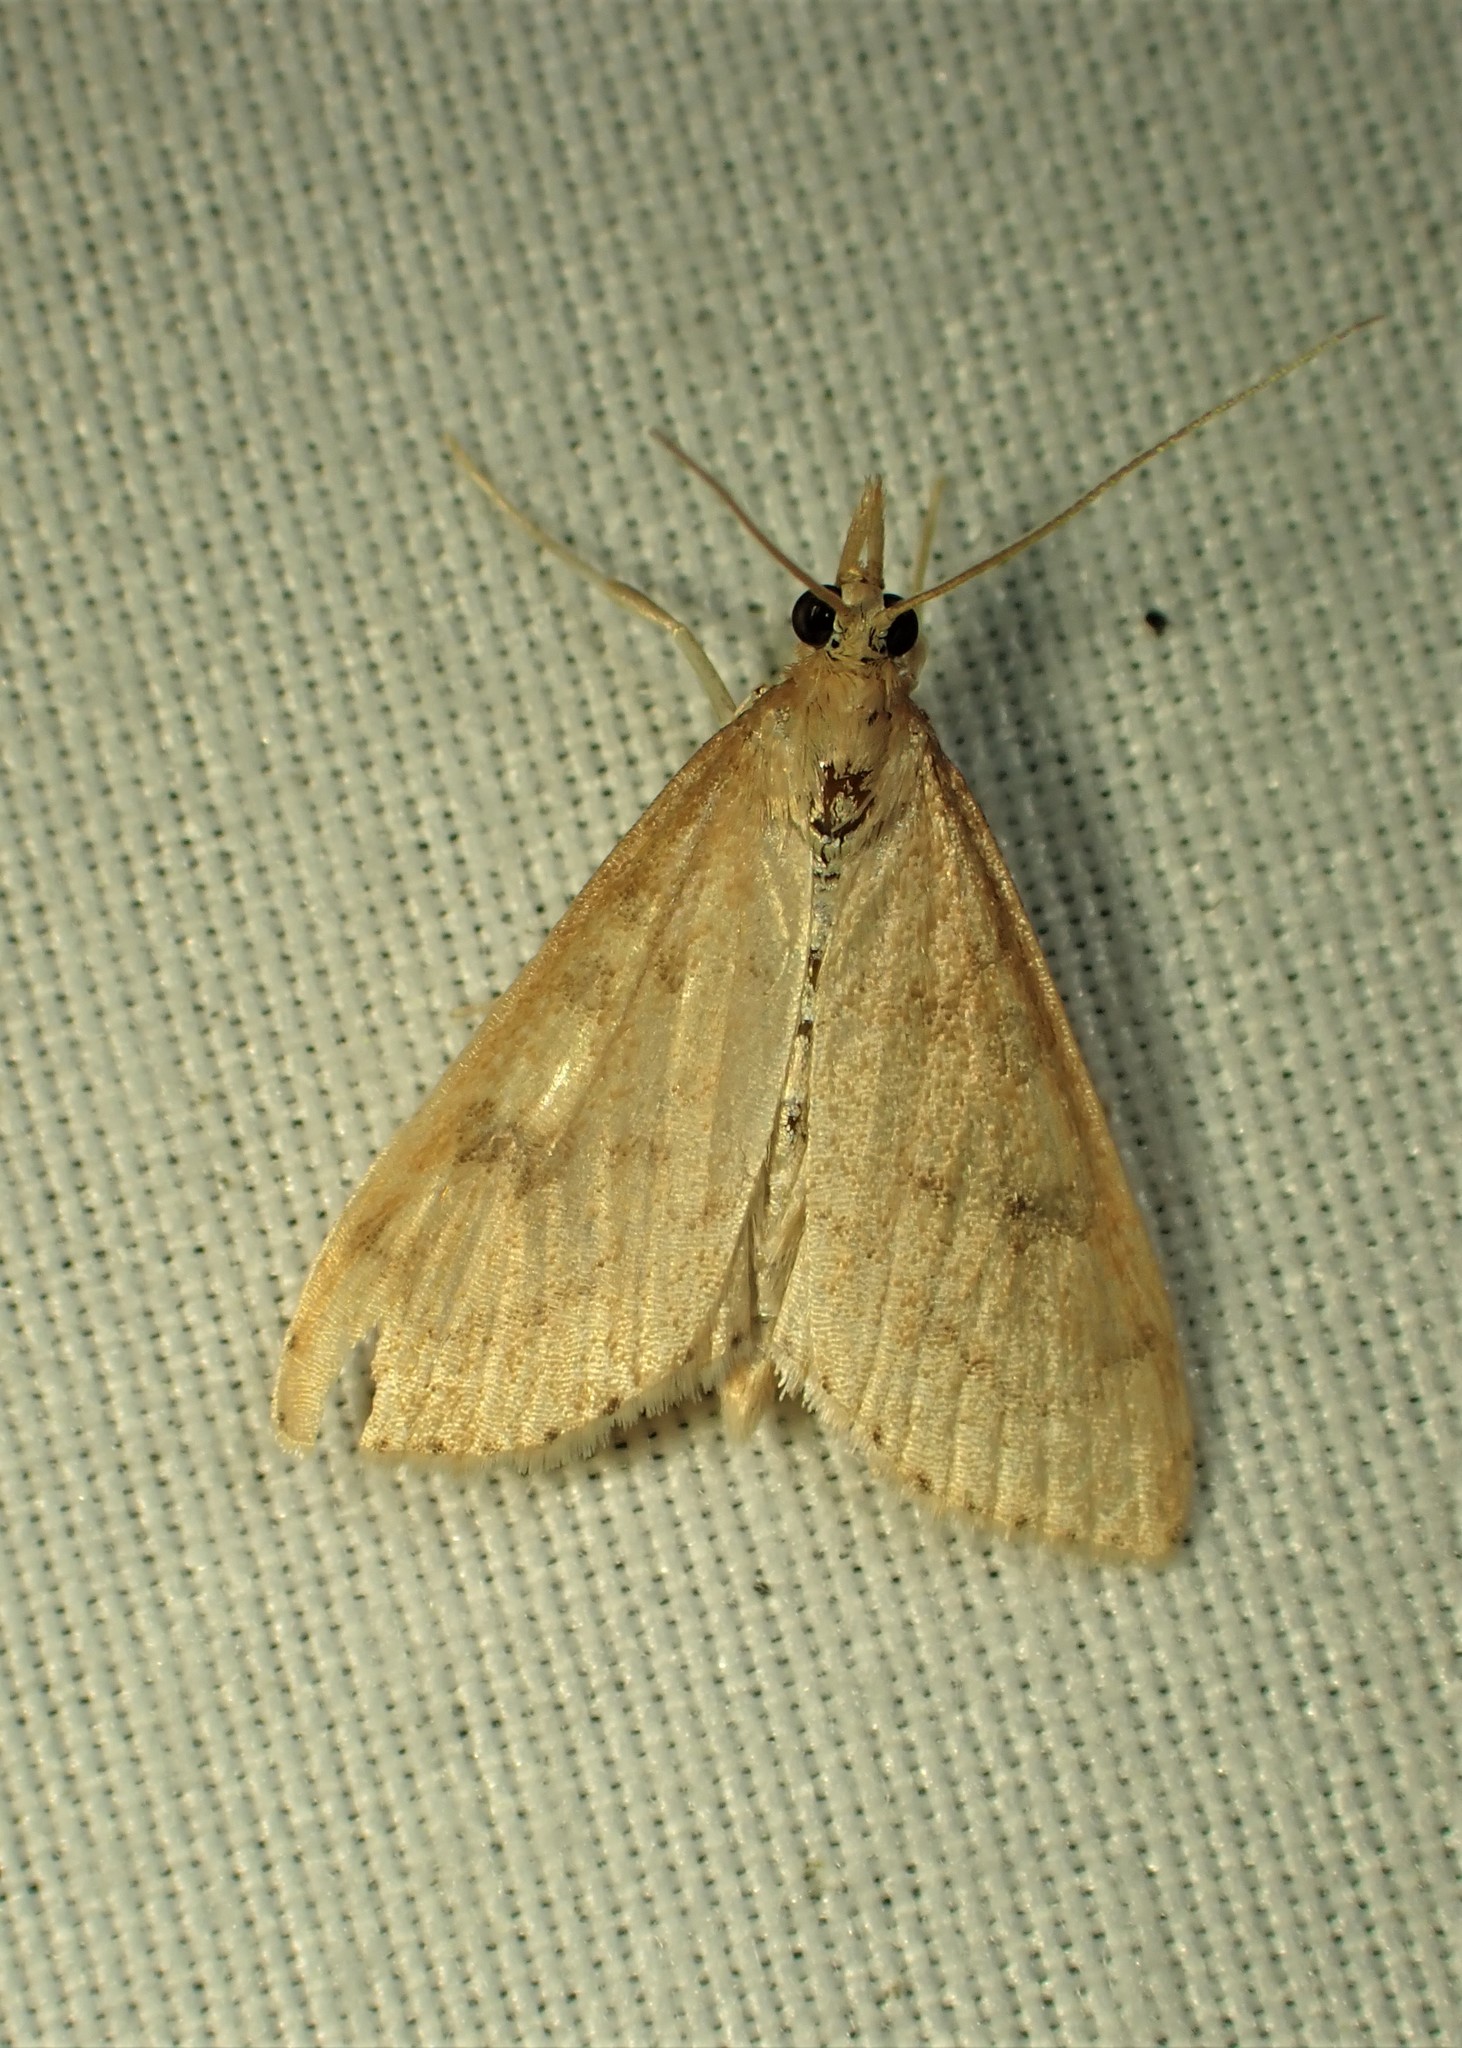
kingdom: Animalia
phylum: Arthropoda
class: Insecta
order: Lepidoptera
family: Crambidae
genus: Udea
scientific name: Udea rubigalis
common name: Celery leaftier moth
